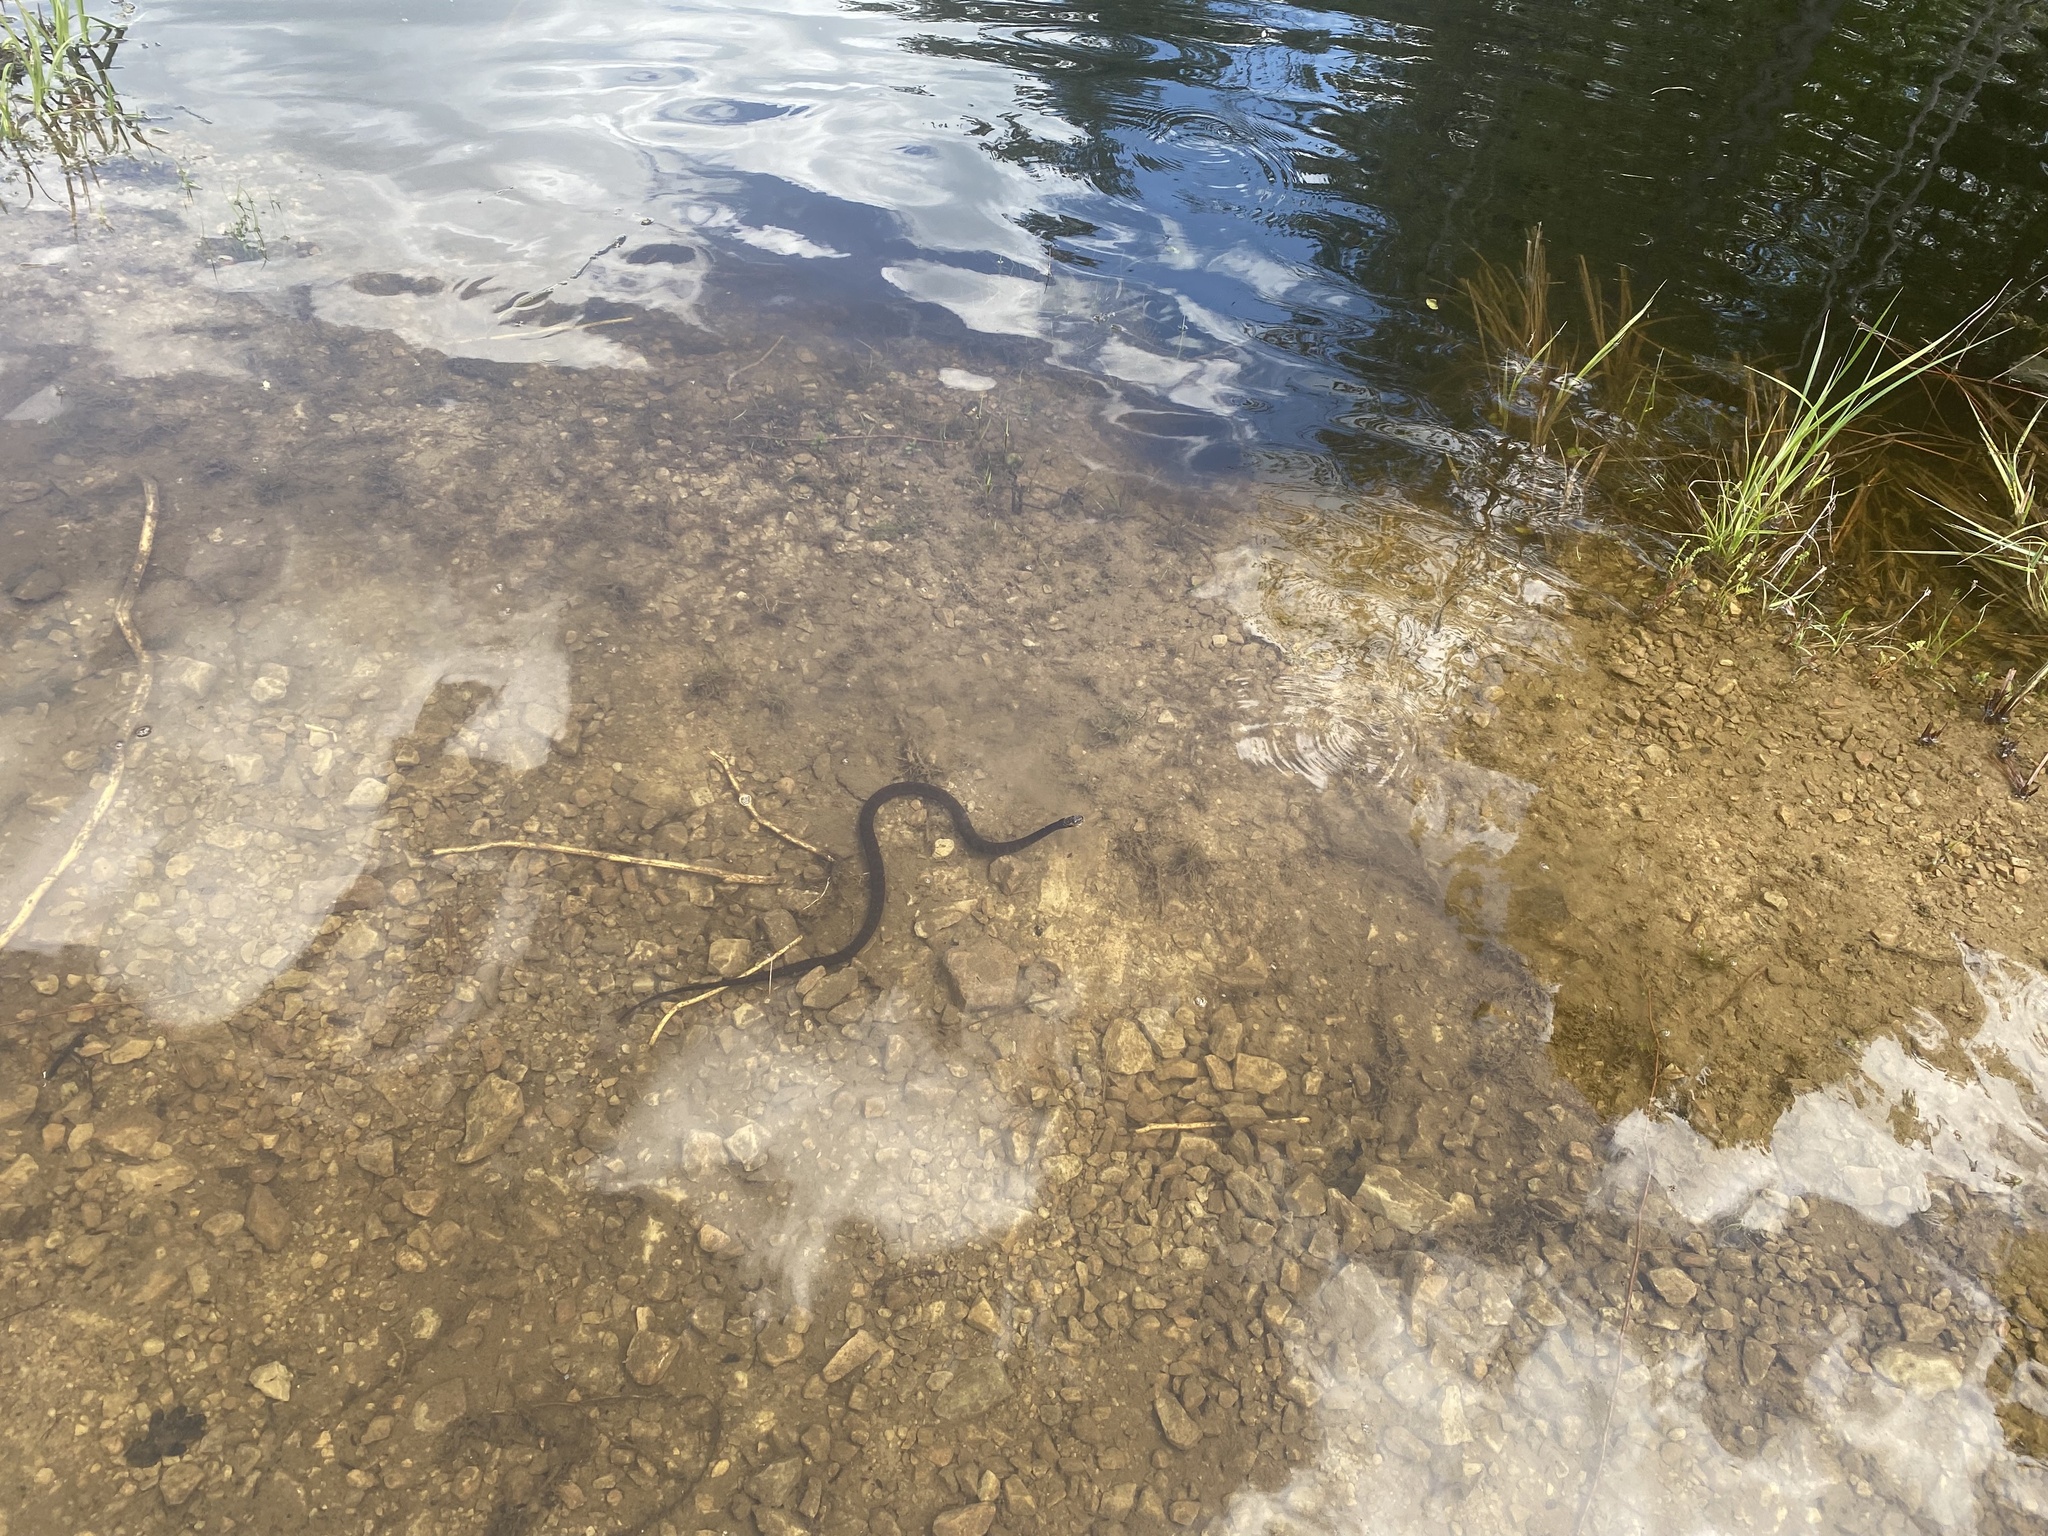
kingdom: Animalia
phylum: Chordata
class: Squamata
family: Colubridae
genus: Nerodia
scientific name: Nerodia sipedon
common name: Northern water snake
